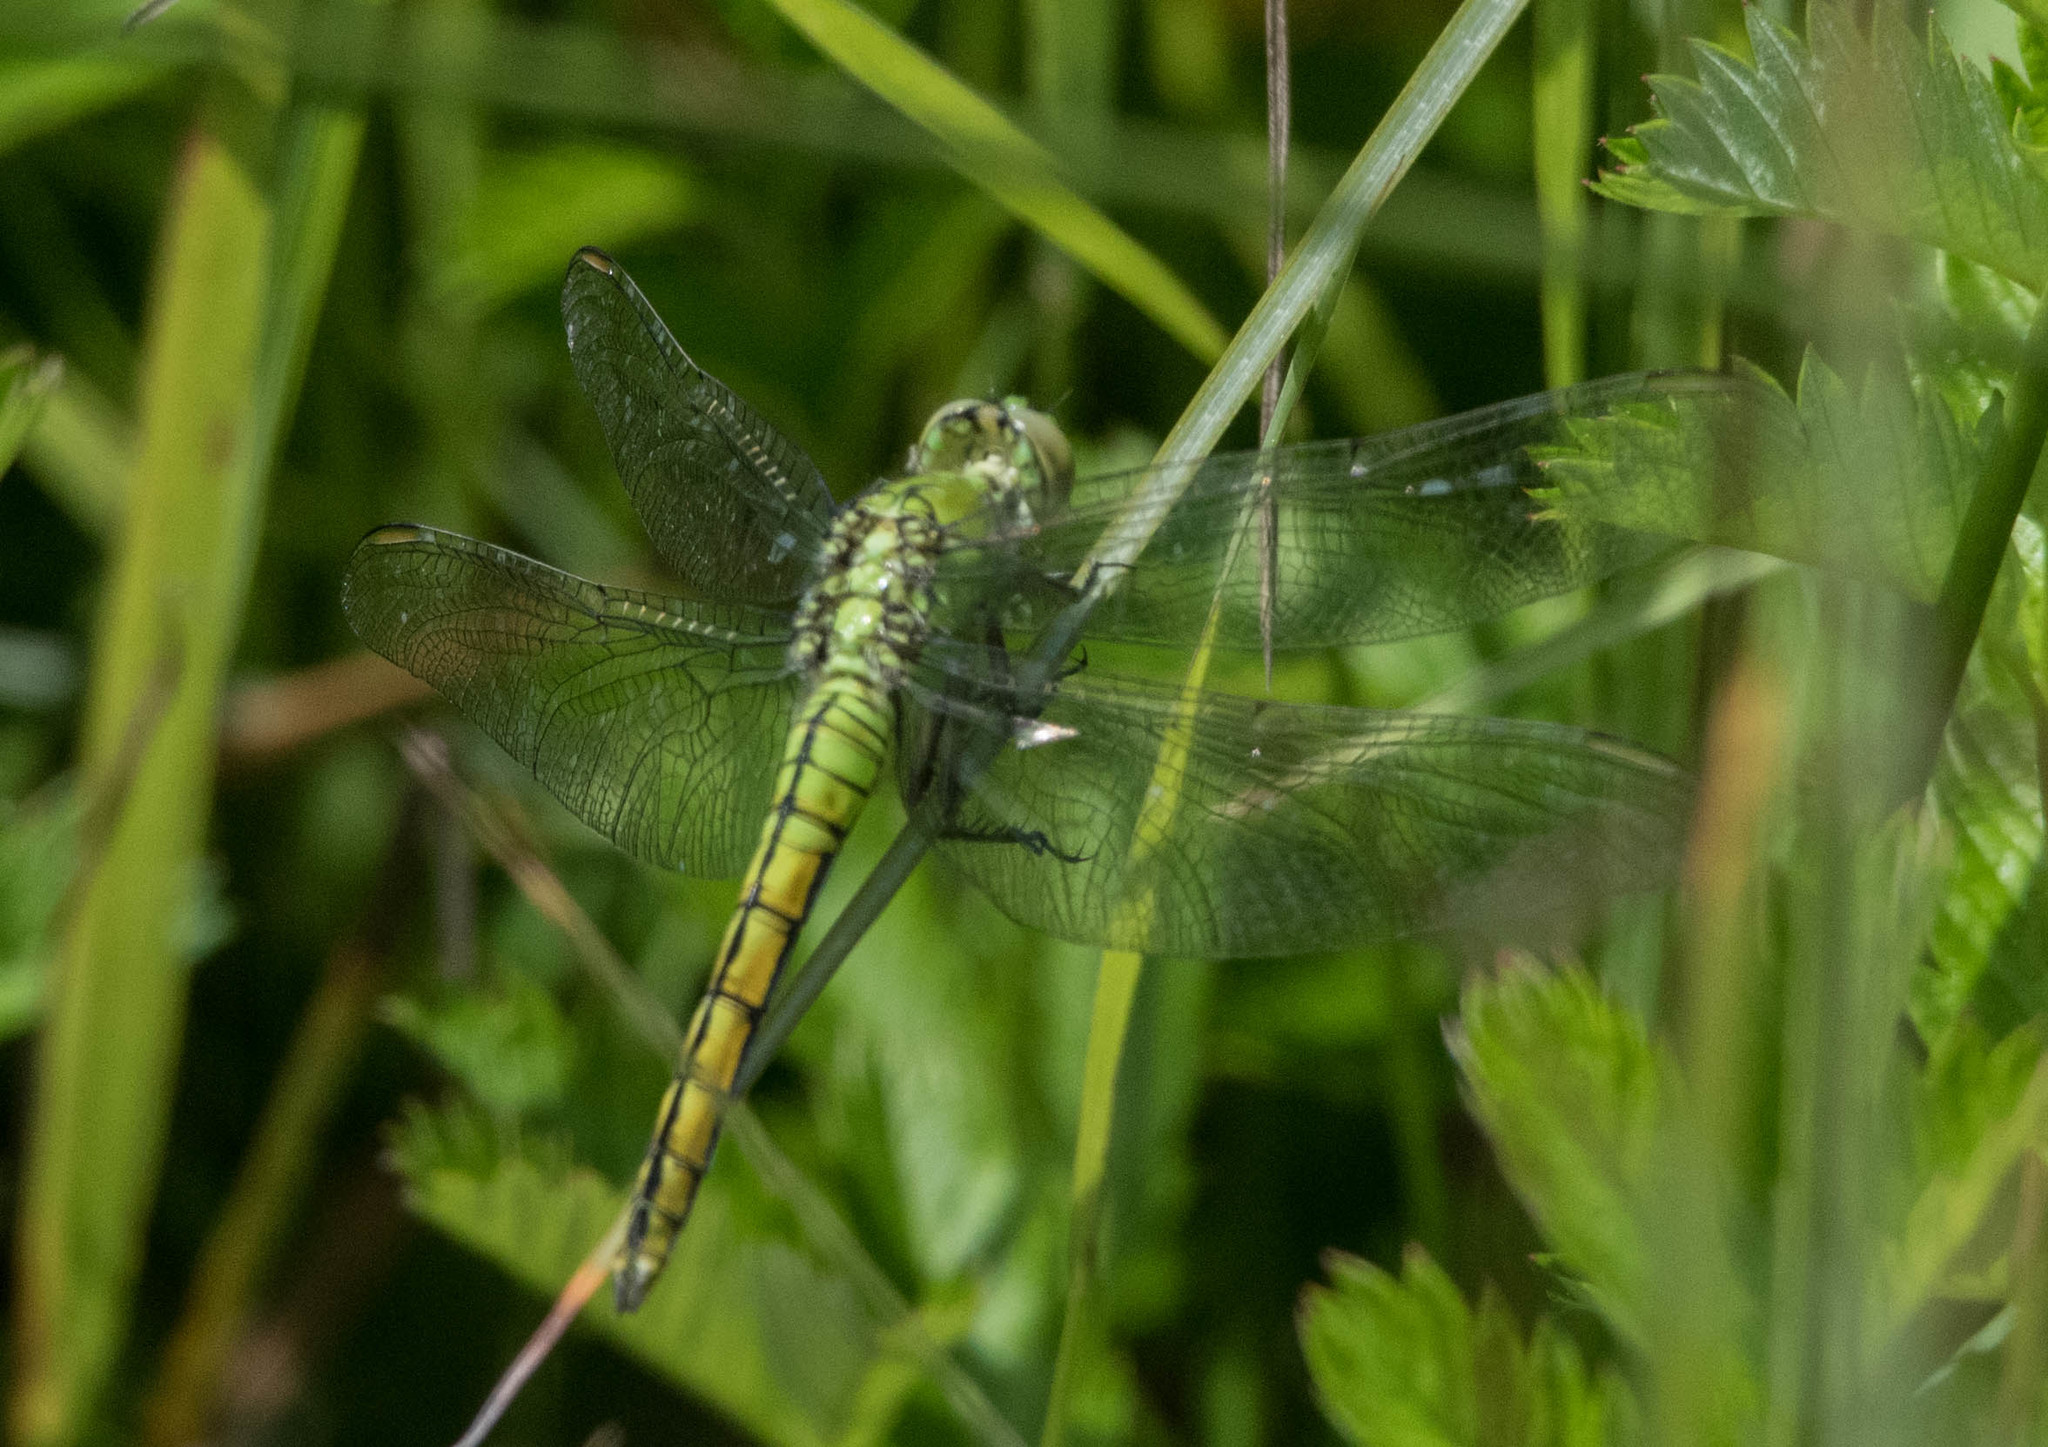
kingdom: Animalia
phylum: Arthropoda
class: Insecta
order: Odonata
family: Libellulidae
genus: Erythemis
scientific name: Erythemis collocata
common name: Western pondhawk
